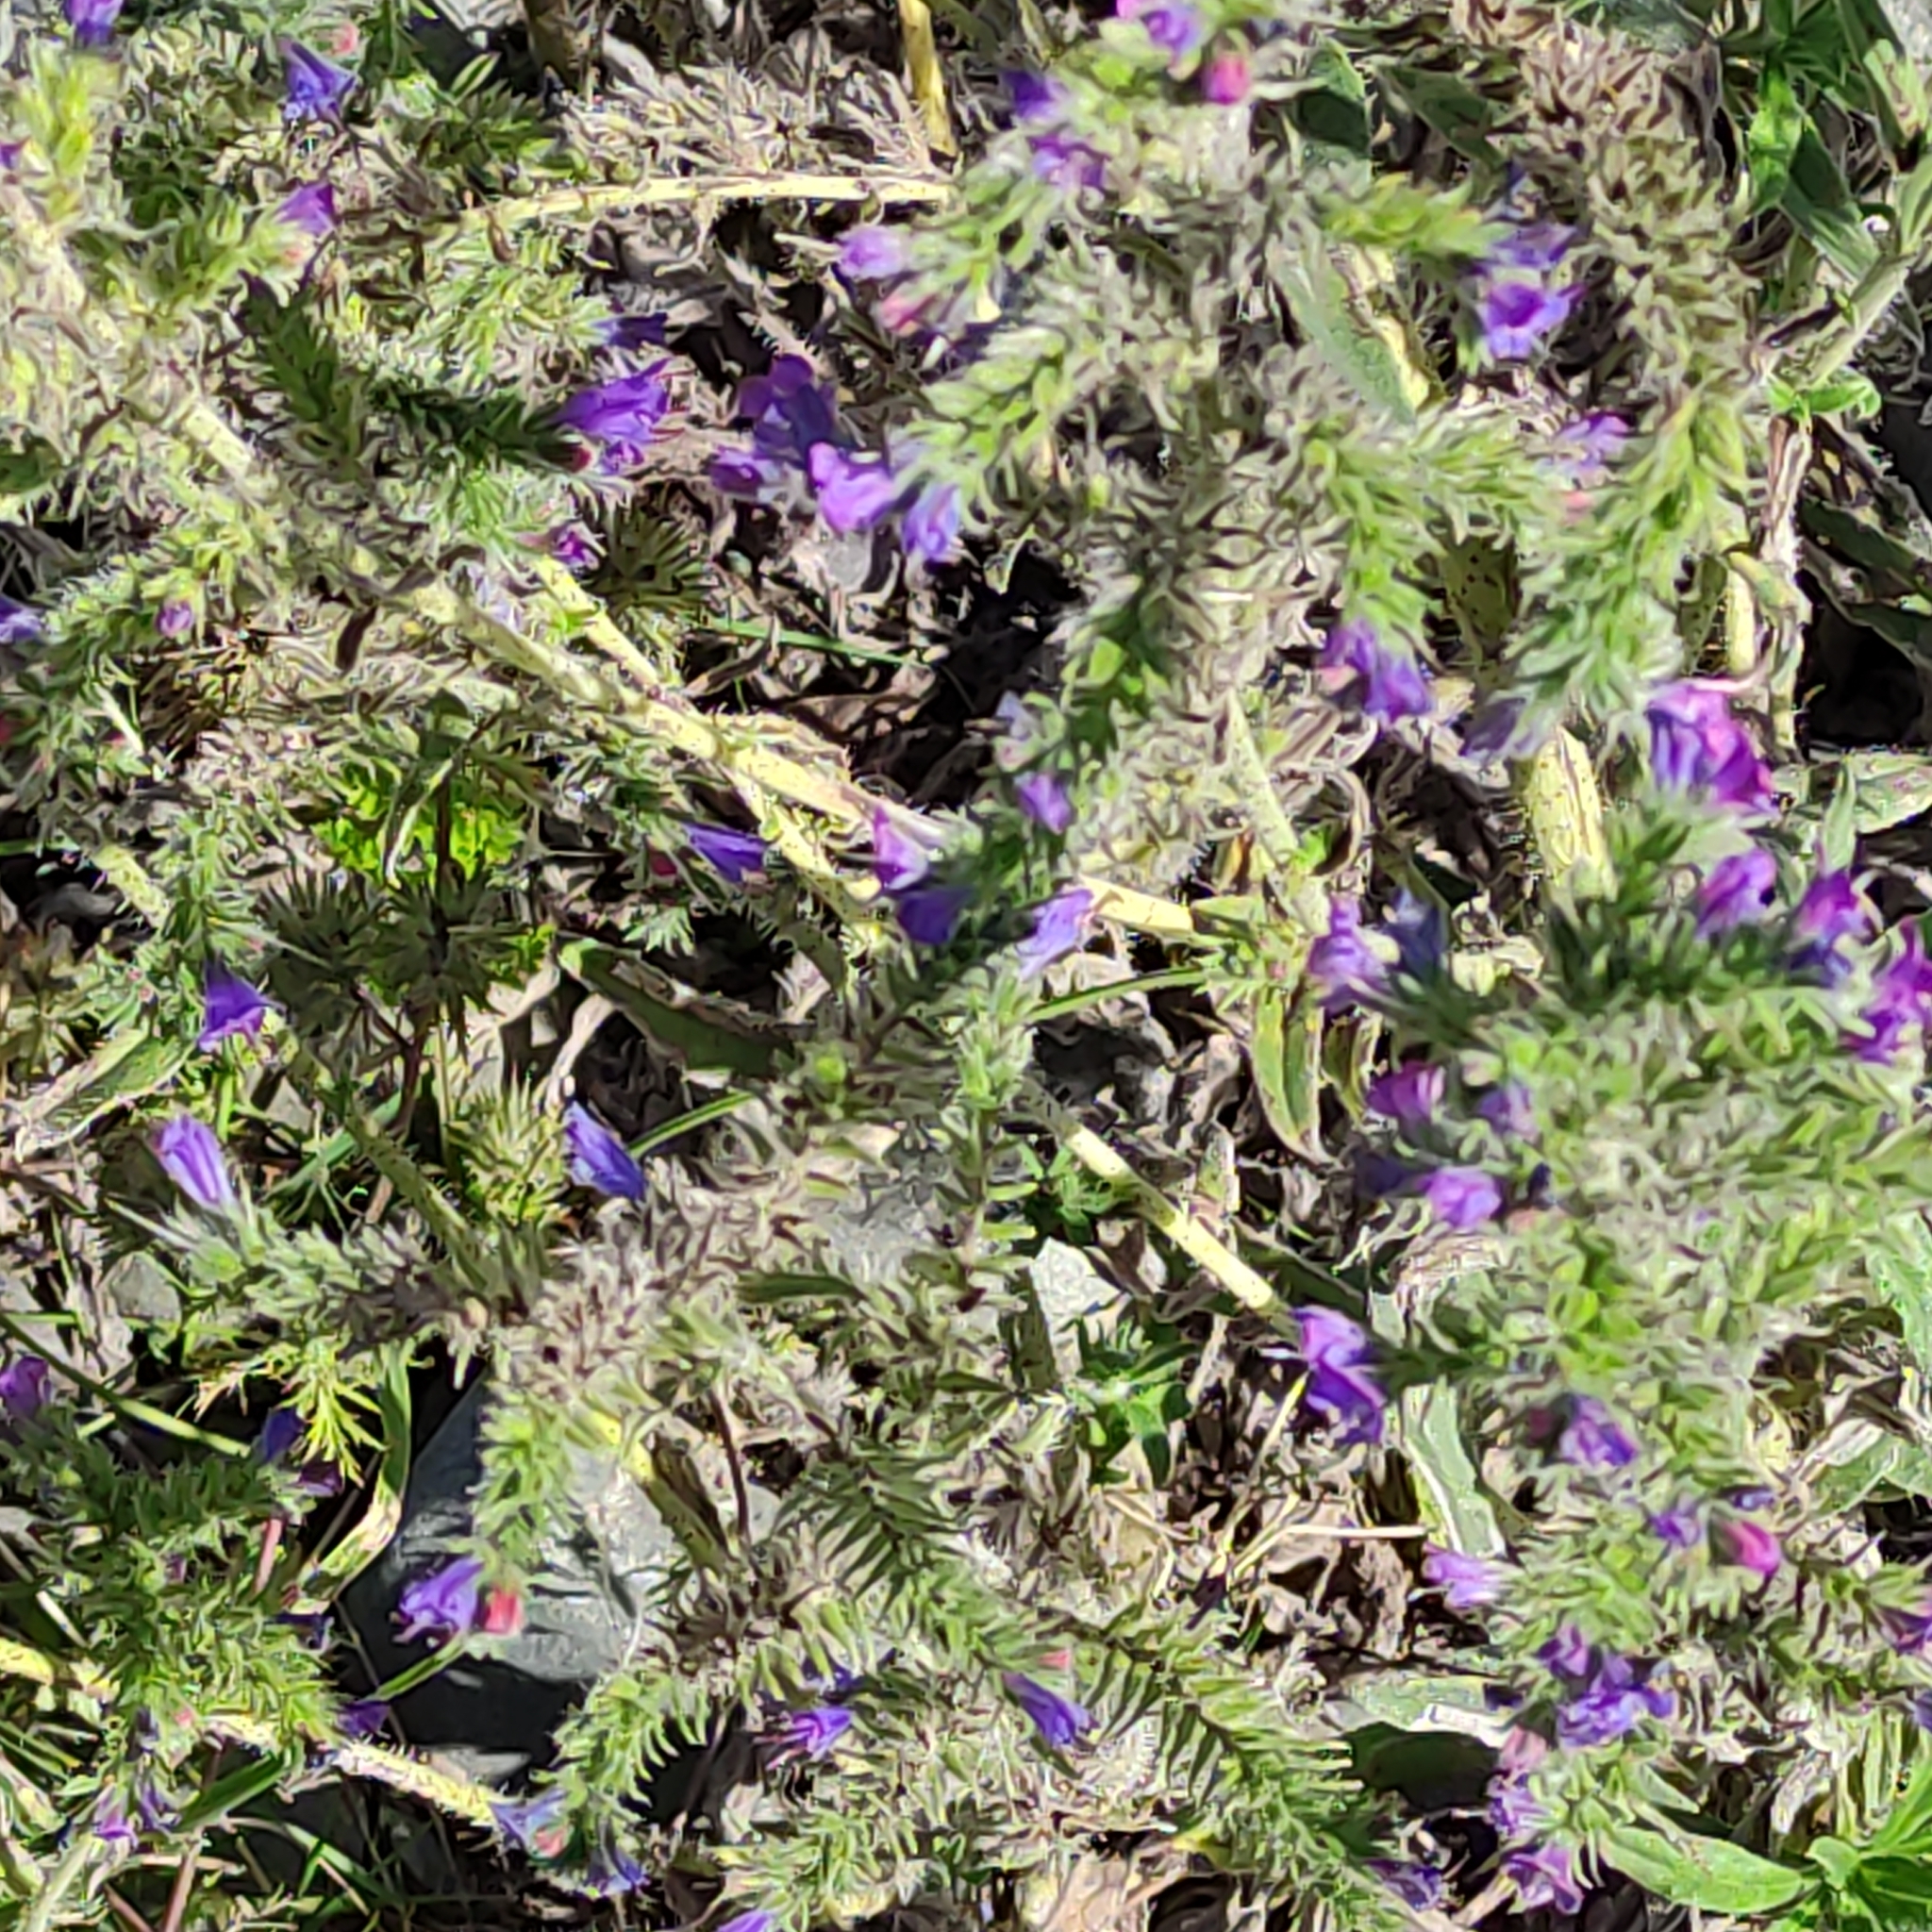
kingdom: Plantae
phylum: Tracheophyta
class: Magnoliopsida
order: Boraginales
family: Boraginaceae
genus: Echium
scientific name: Echium vulgare
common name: Common viper's bugloss
